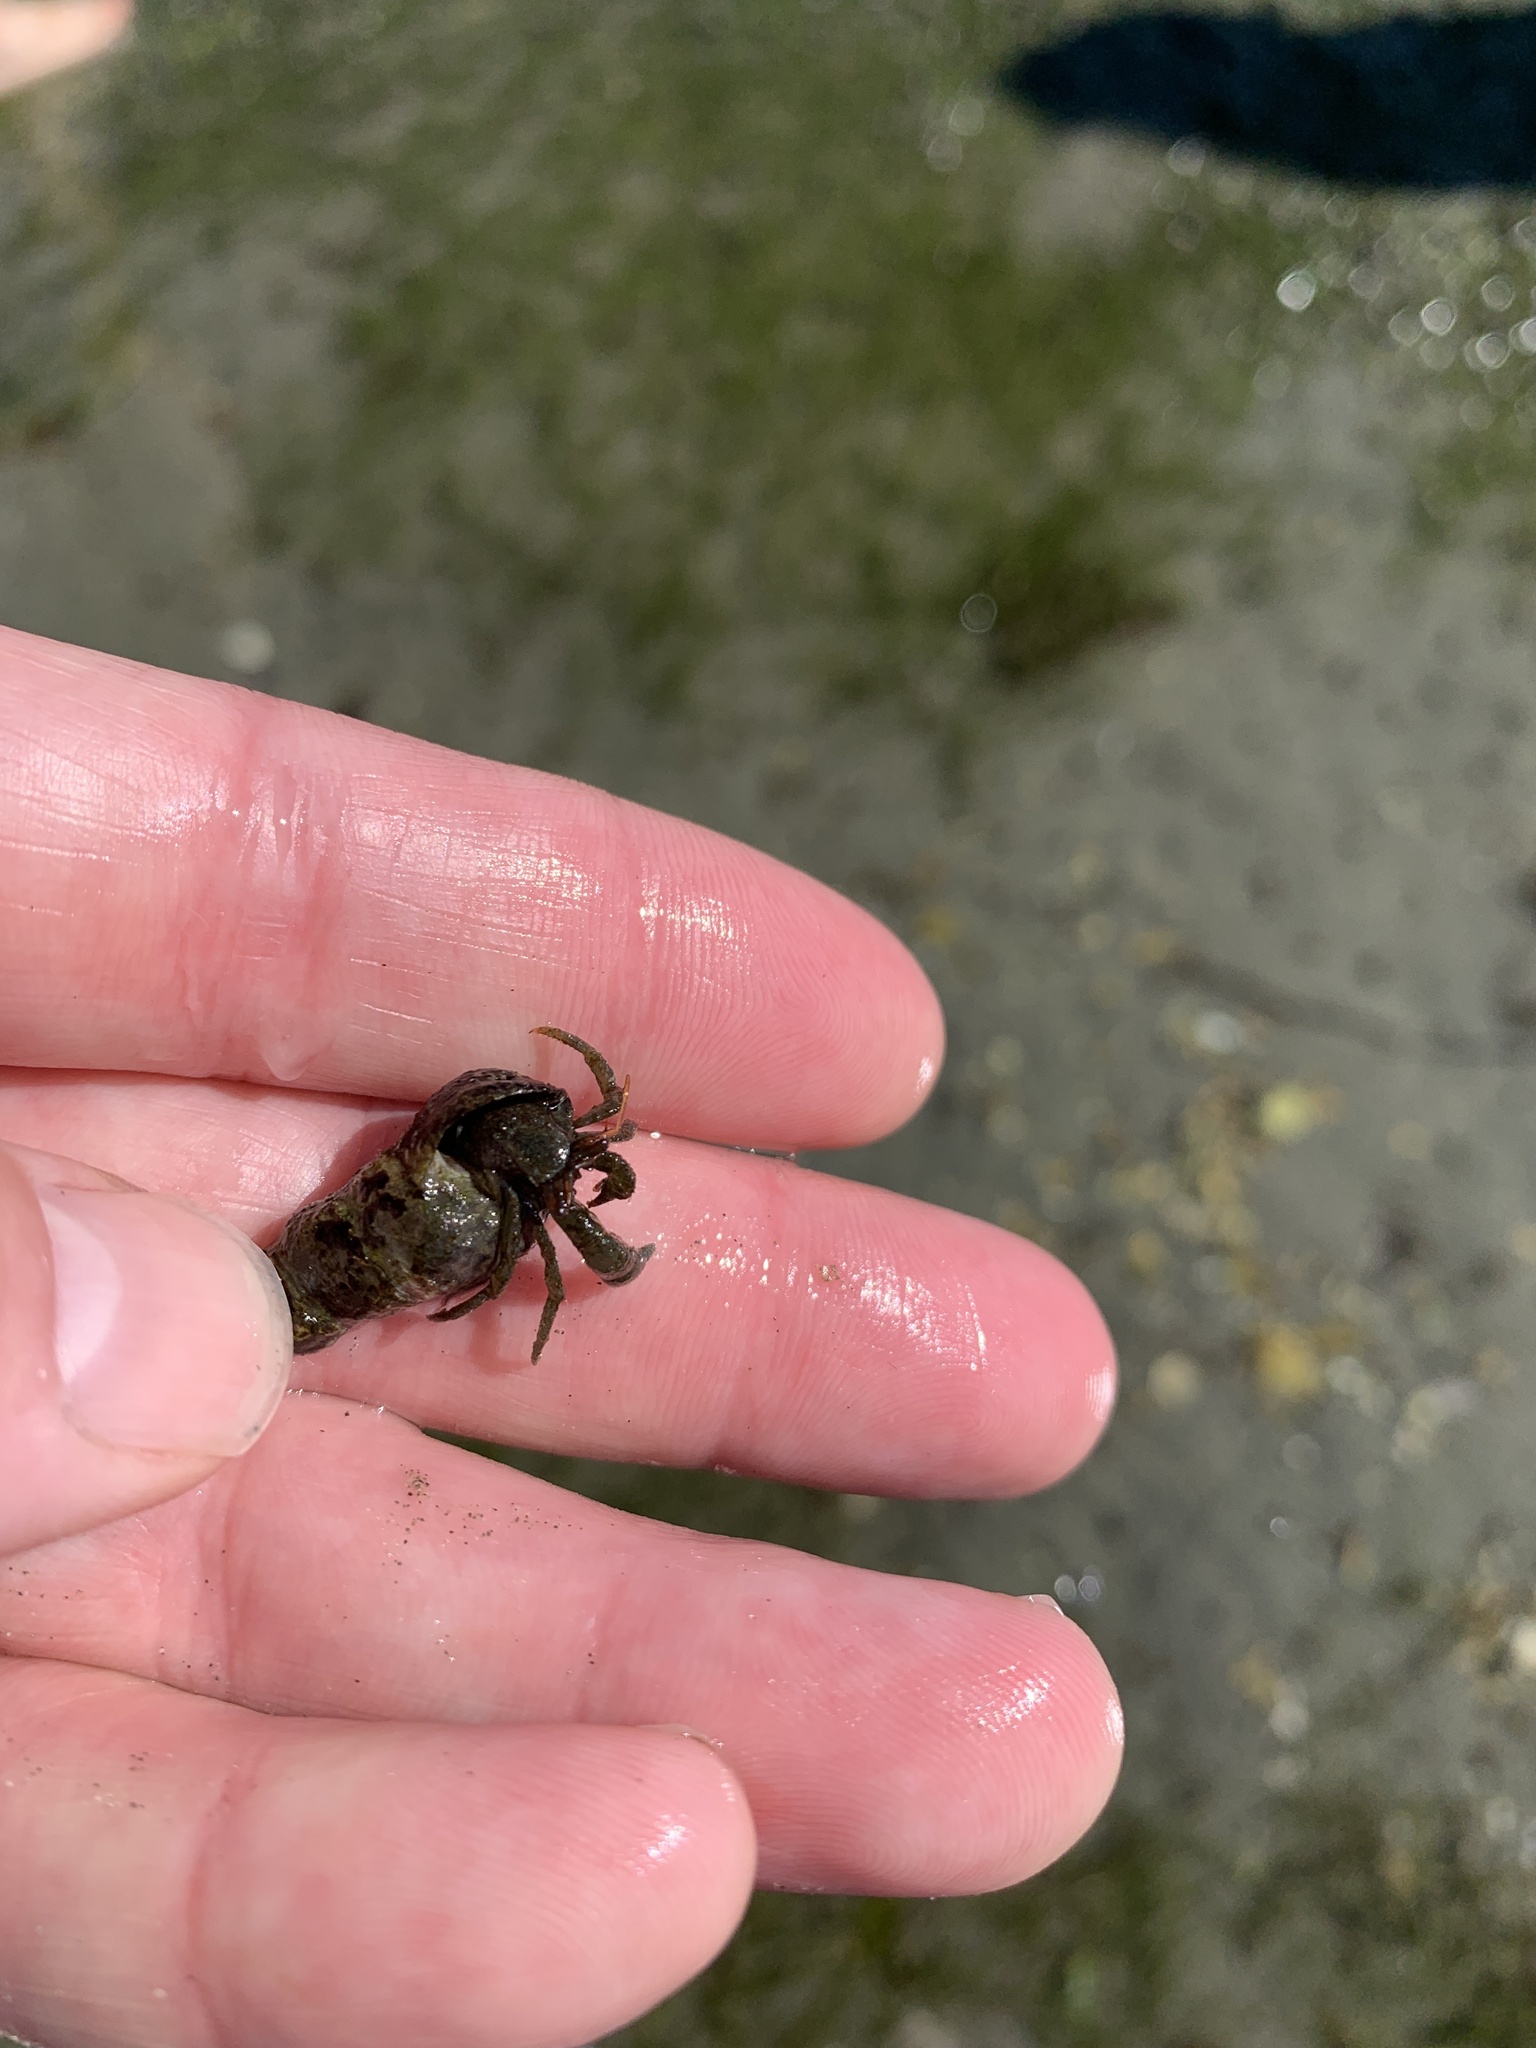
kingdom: Animalia
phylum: Arthropoda
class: Malacostraca
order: Decapoda
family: Paguridae
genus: Pagurus
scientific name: Pagurus granosimanus
